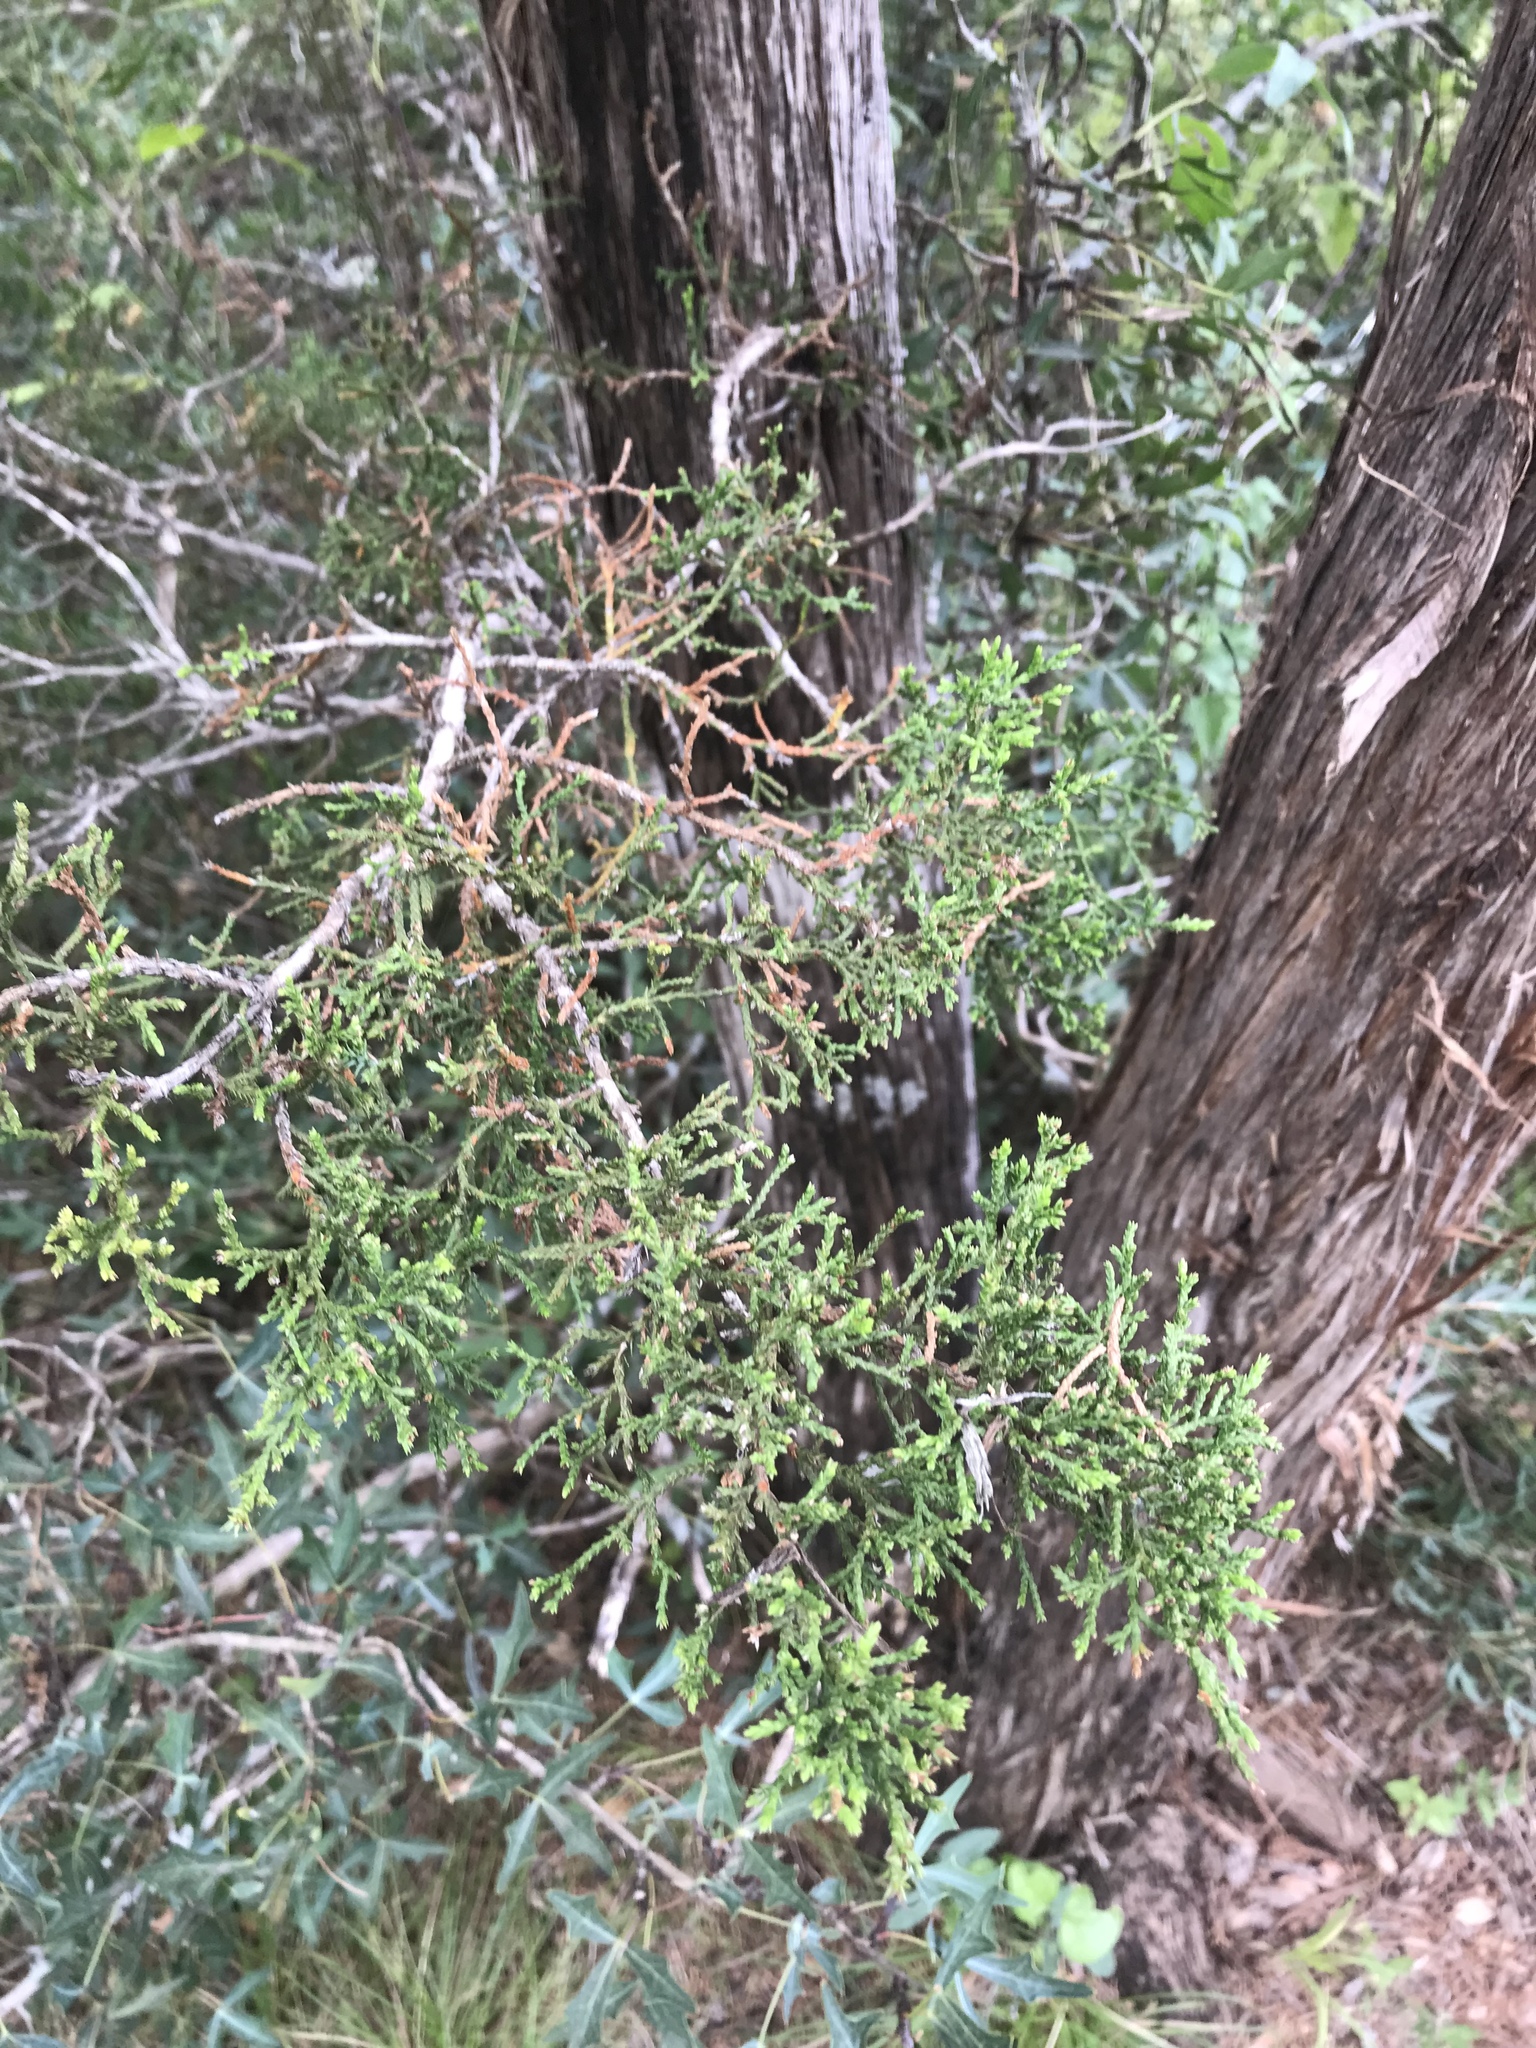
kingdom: Plantae
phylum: Tracheophyta
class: Pinopsida
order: Pinales
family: Cupressaceae
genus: Juniperus
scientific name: Juniperus ashei
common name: Mexican juniper
